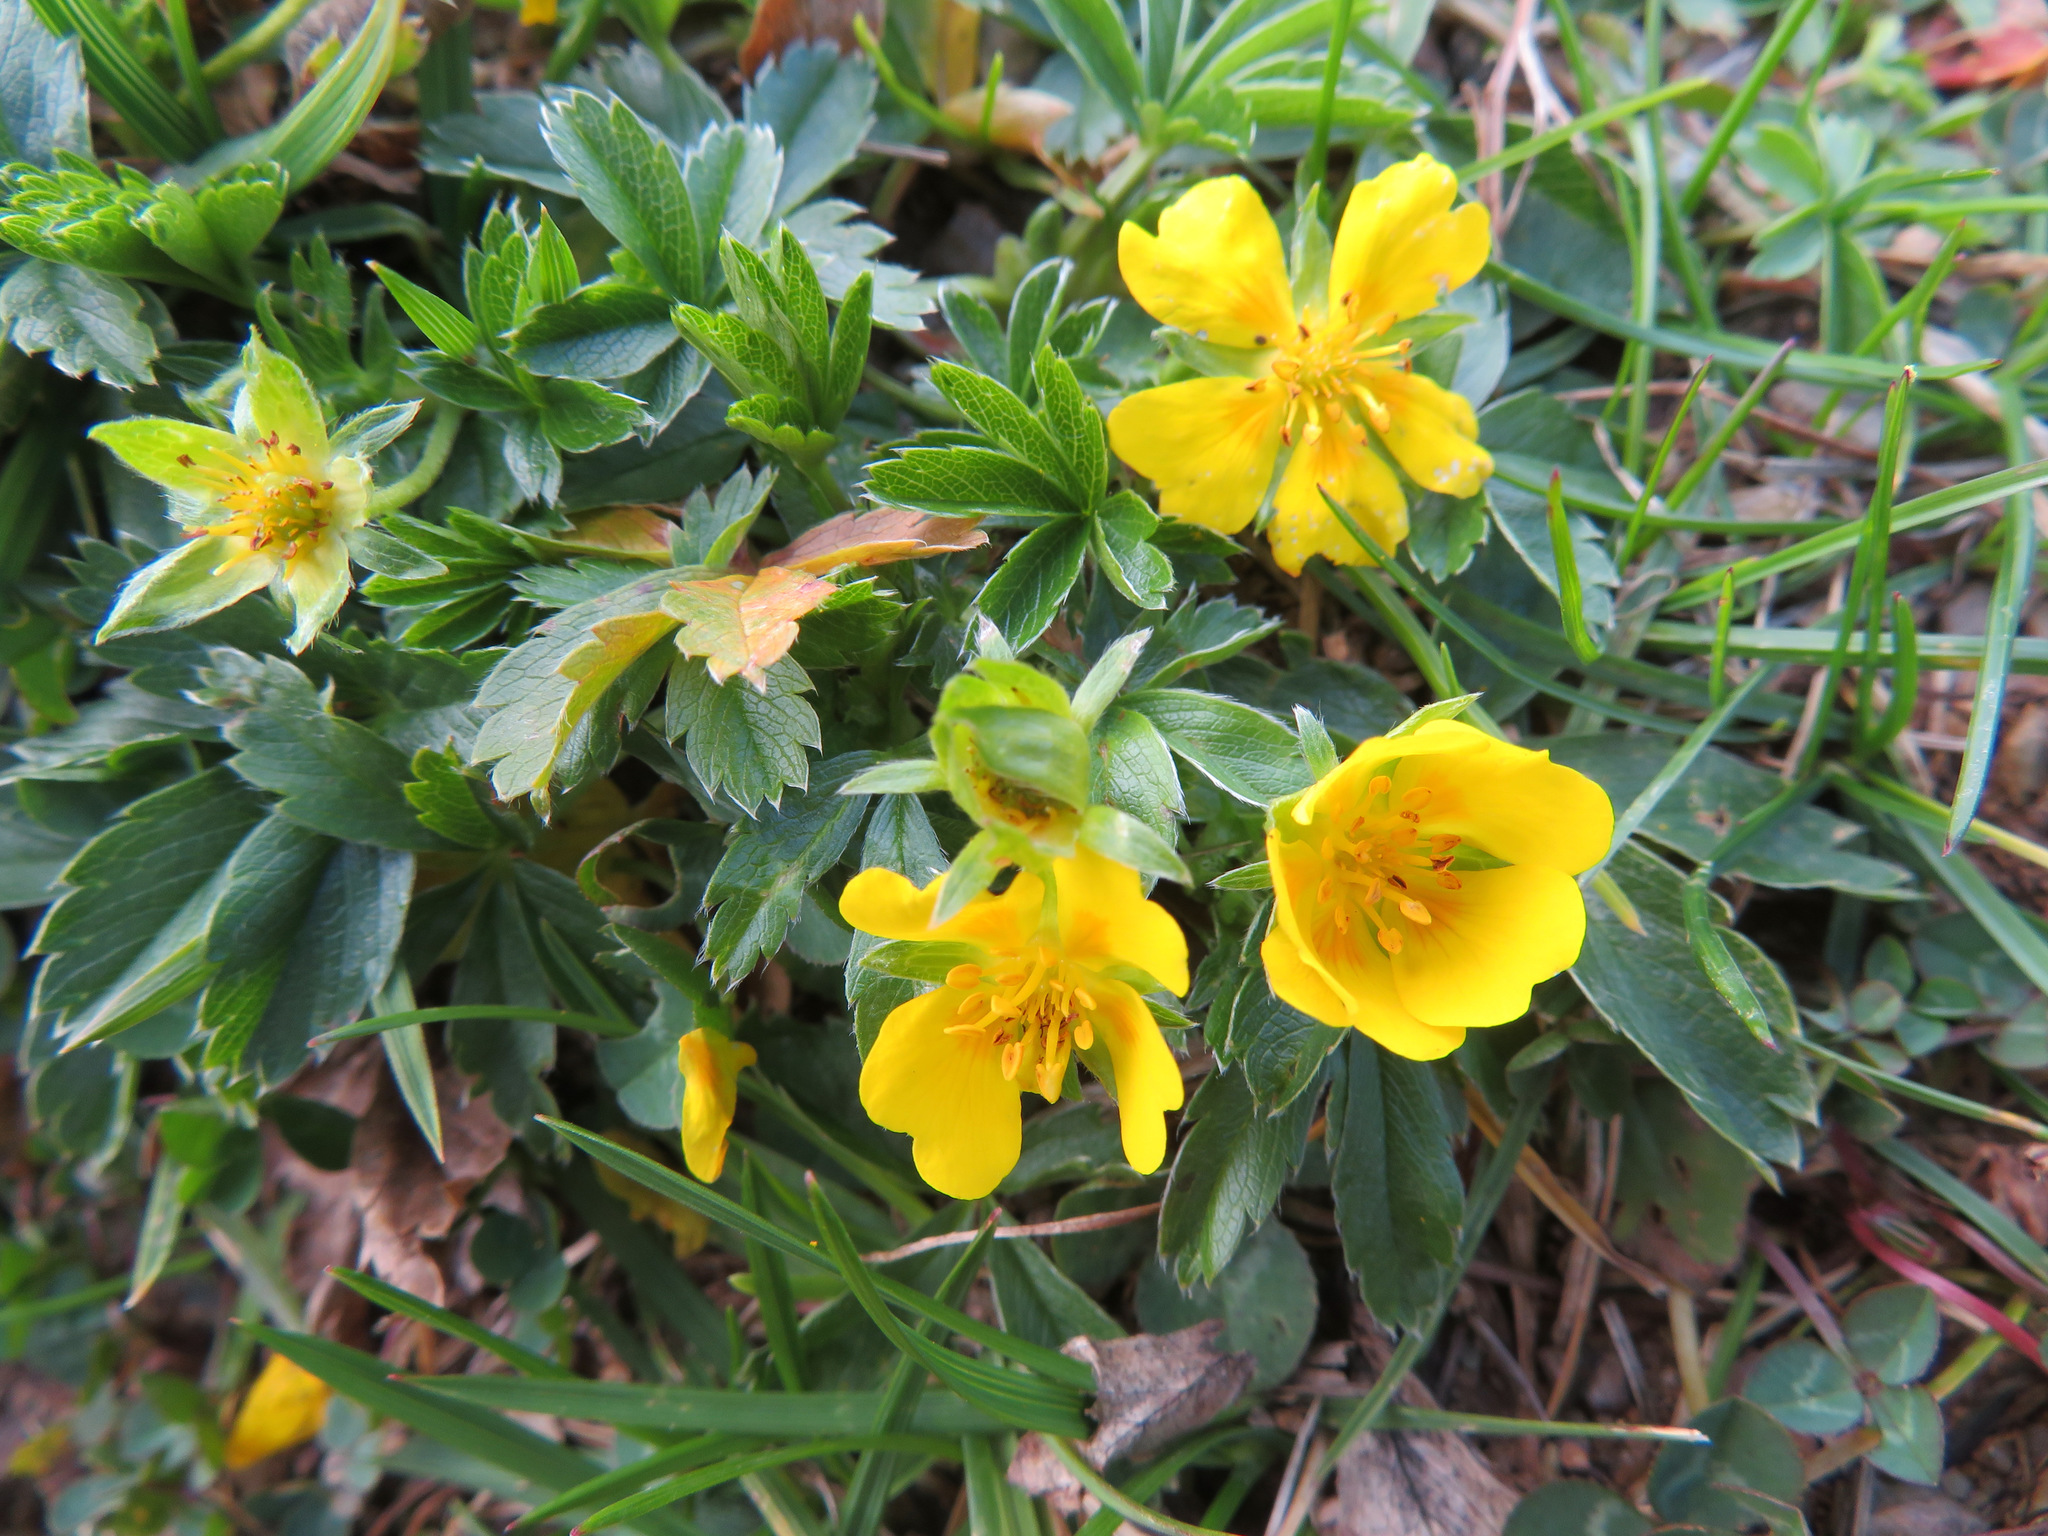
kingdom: Plantae
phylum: Tracheophyta
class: Magnoliopsida
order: Rosales
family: Rosaceae
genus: Potentilla
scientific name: Potentilla aurea
